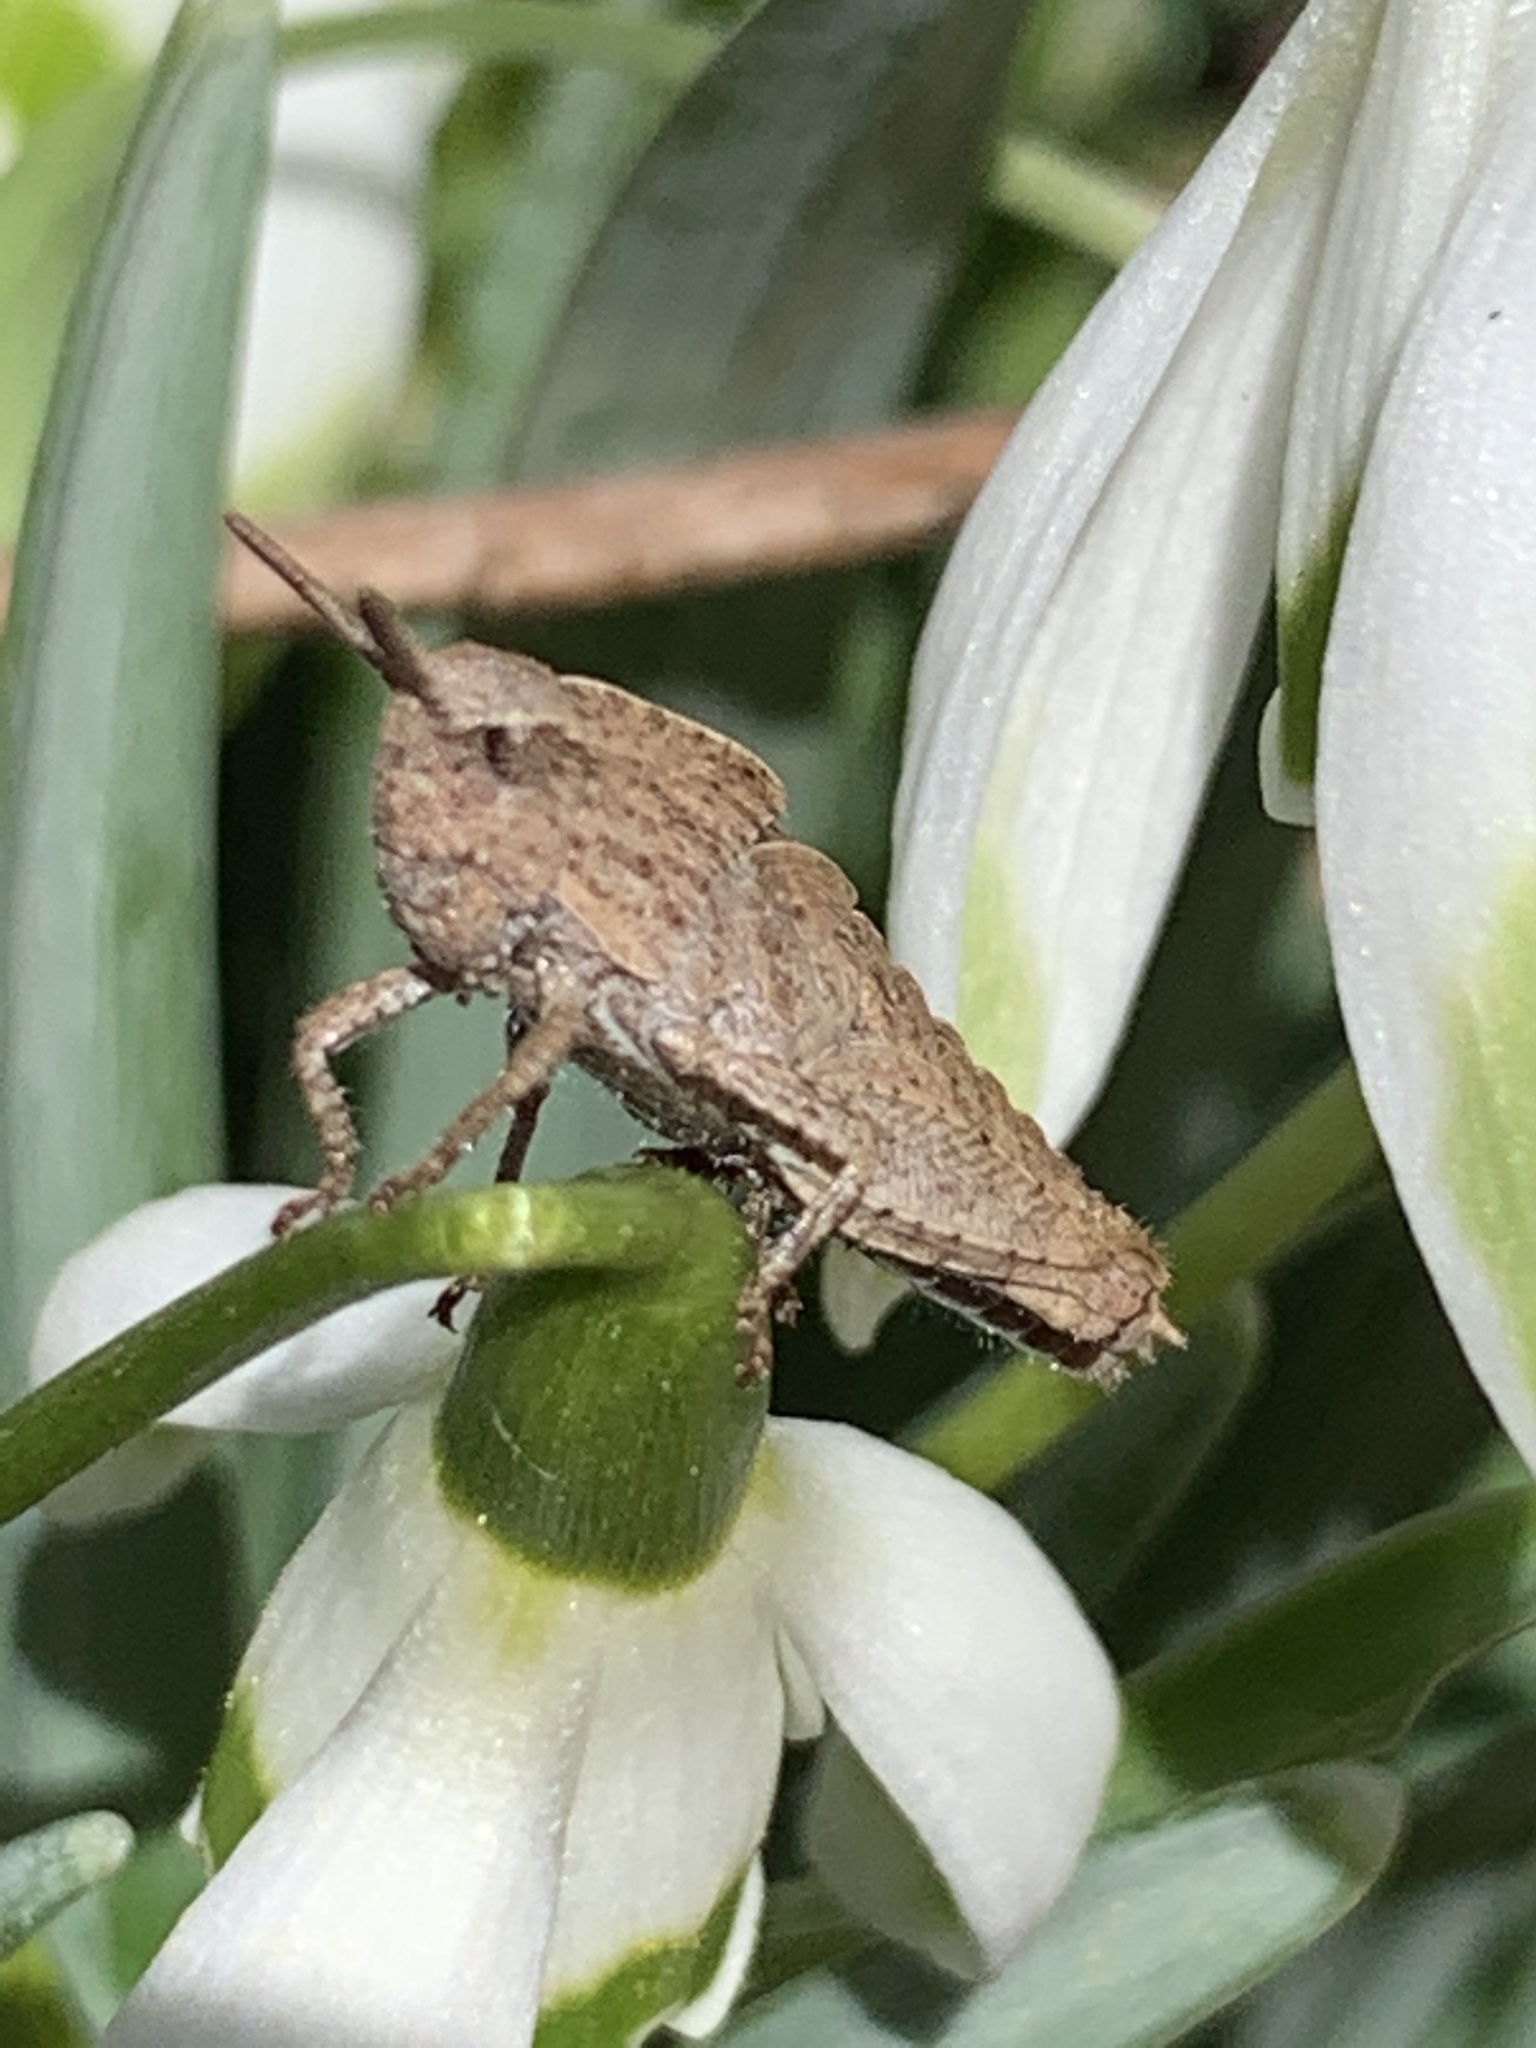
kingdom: Animalia
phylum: Arthropoda
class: Insecta
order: Orthoptera
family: Acrididae
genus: Chortophaga
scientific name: Chortophaga viridifasciata
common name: Green-striped grasshopper
